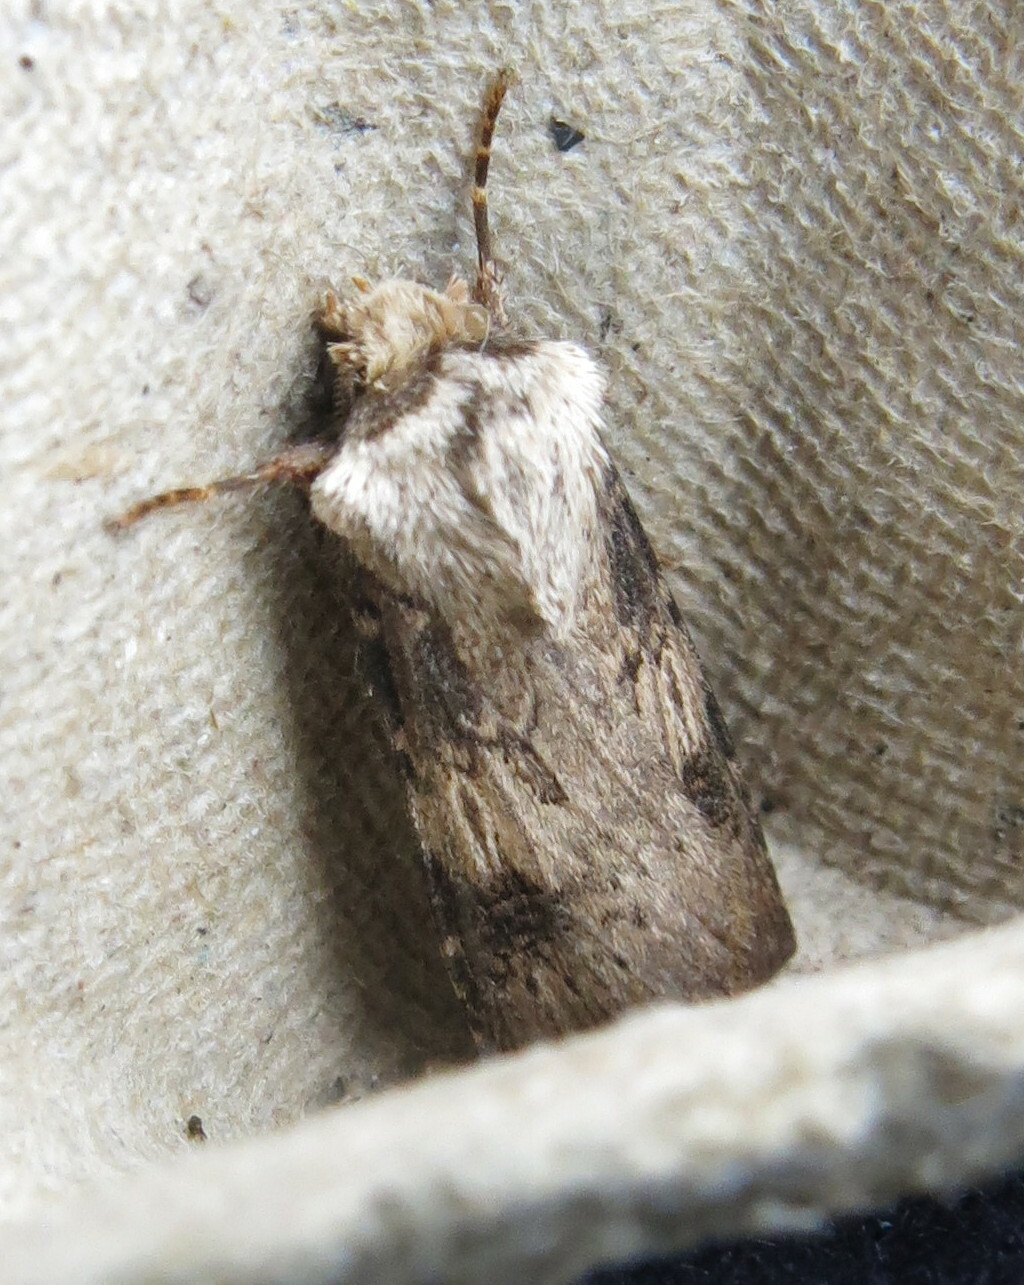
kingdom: Animalia
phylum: Arthropoda
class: Insecta
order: Lepidoptera
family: Noctuidae
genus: Agrotis
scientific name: Agrotis puta
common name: Shuttle-shaped dart
